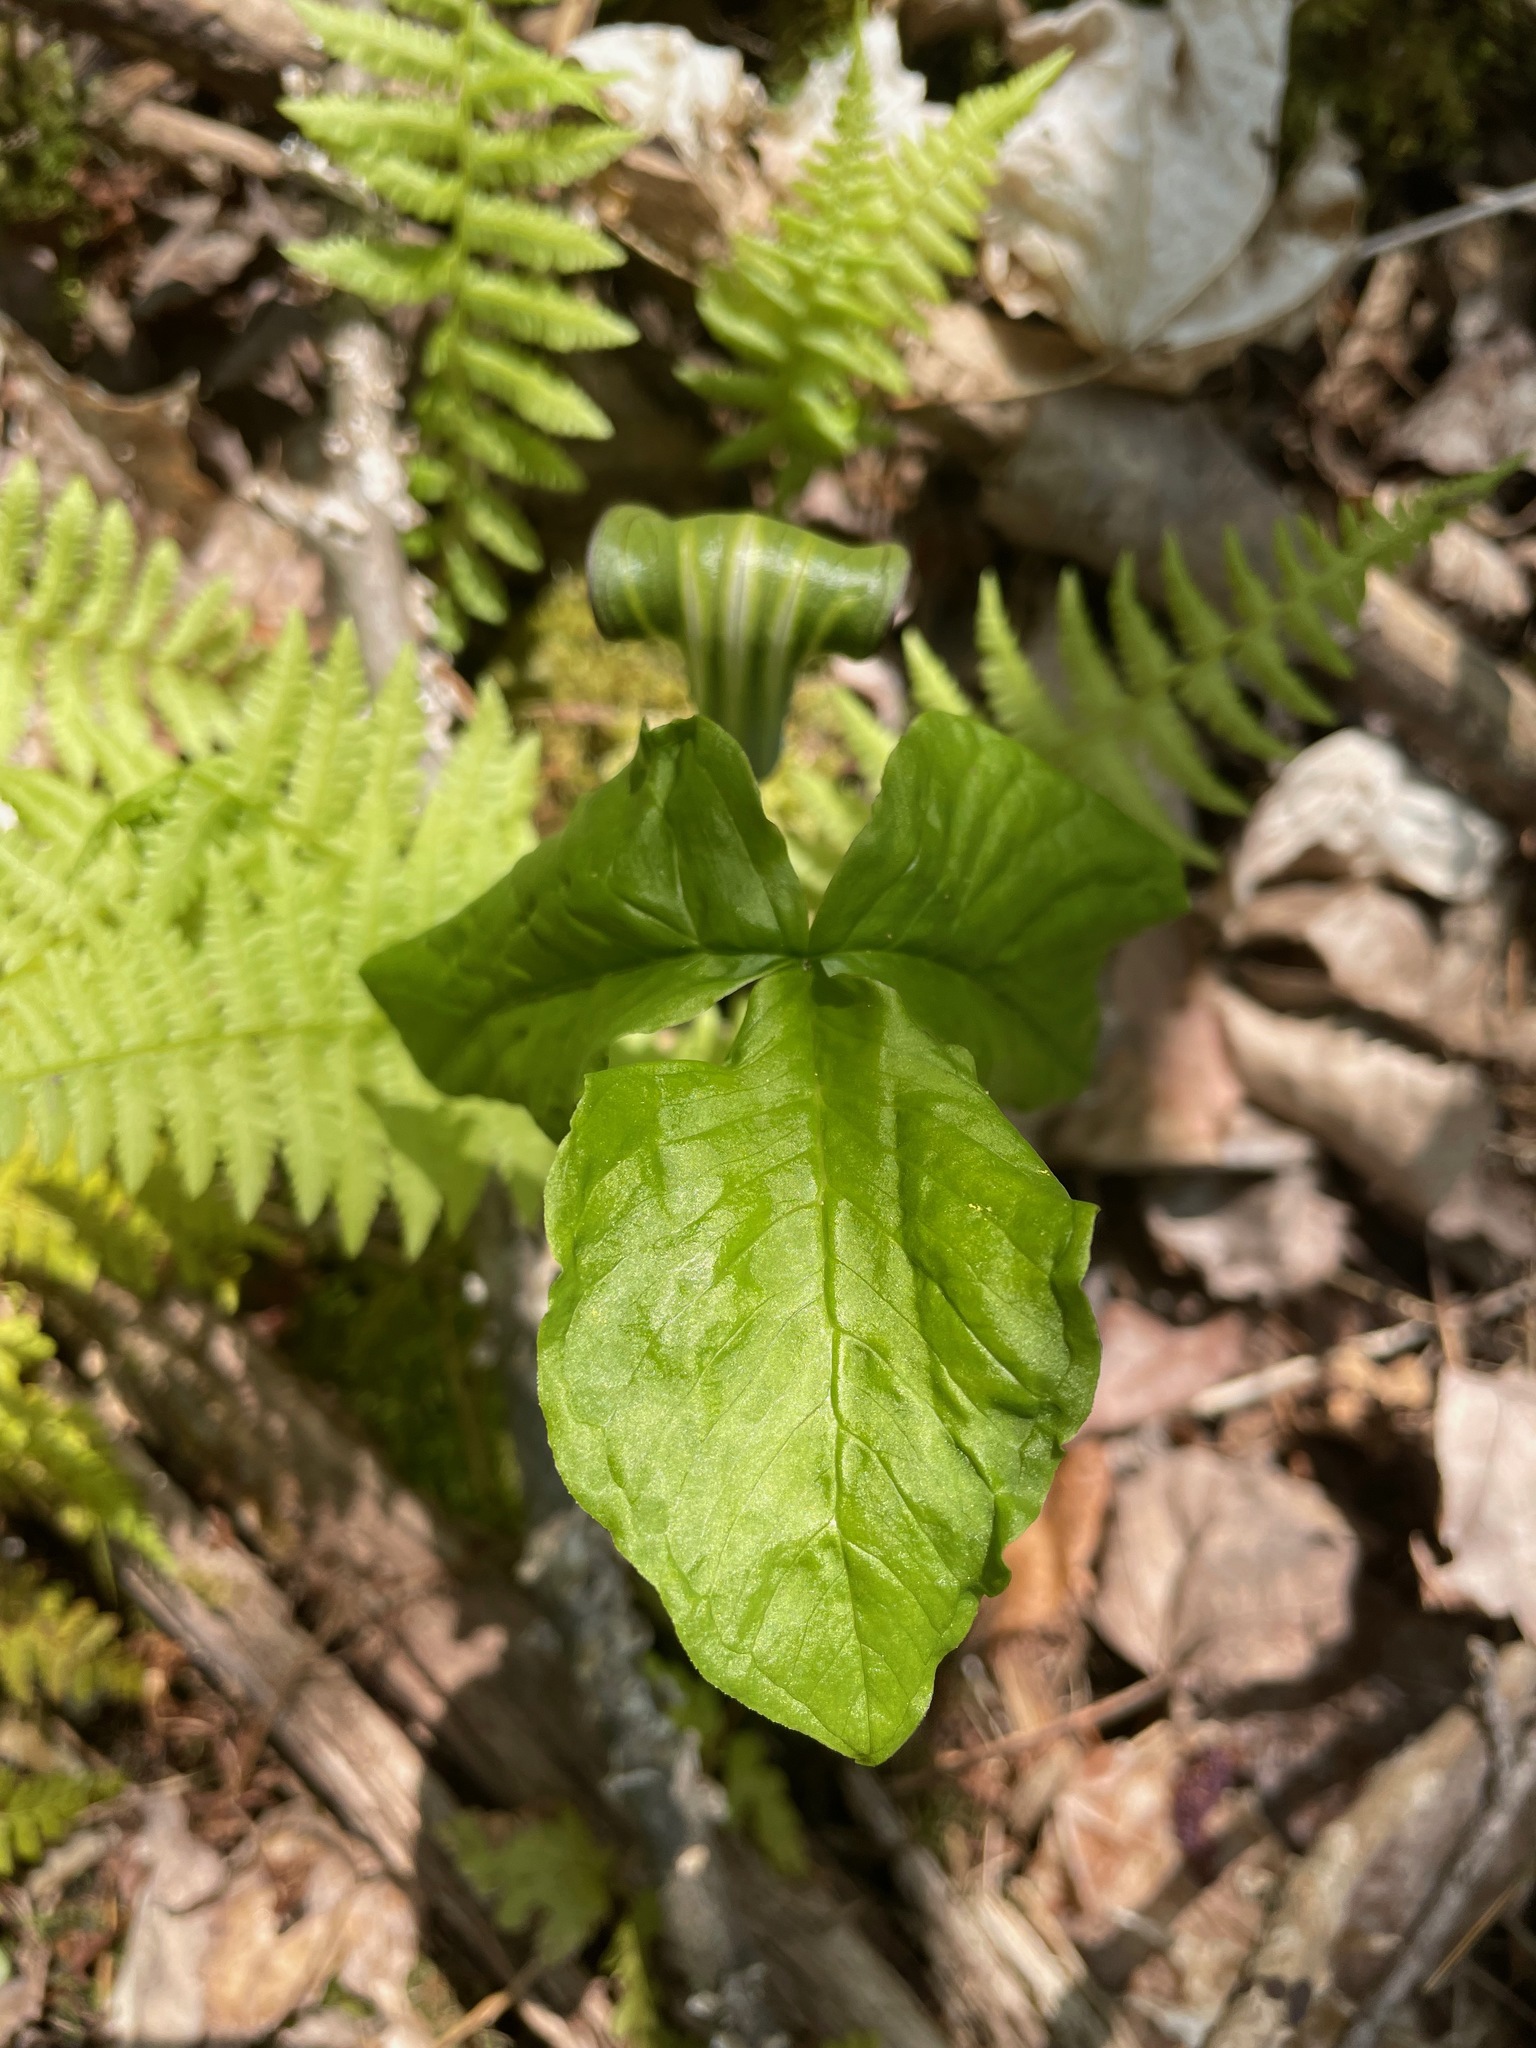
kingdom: Plantae
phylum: Tracheophyta
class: Liliopsida
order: Alismatales
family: Araceae
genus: Arisaema
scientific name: Arisaema triphyllum
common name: Jack-in-the-pulpit
